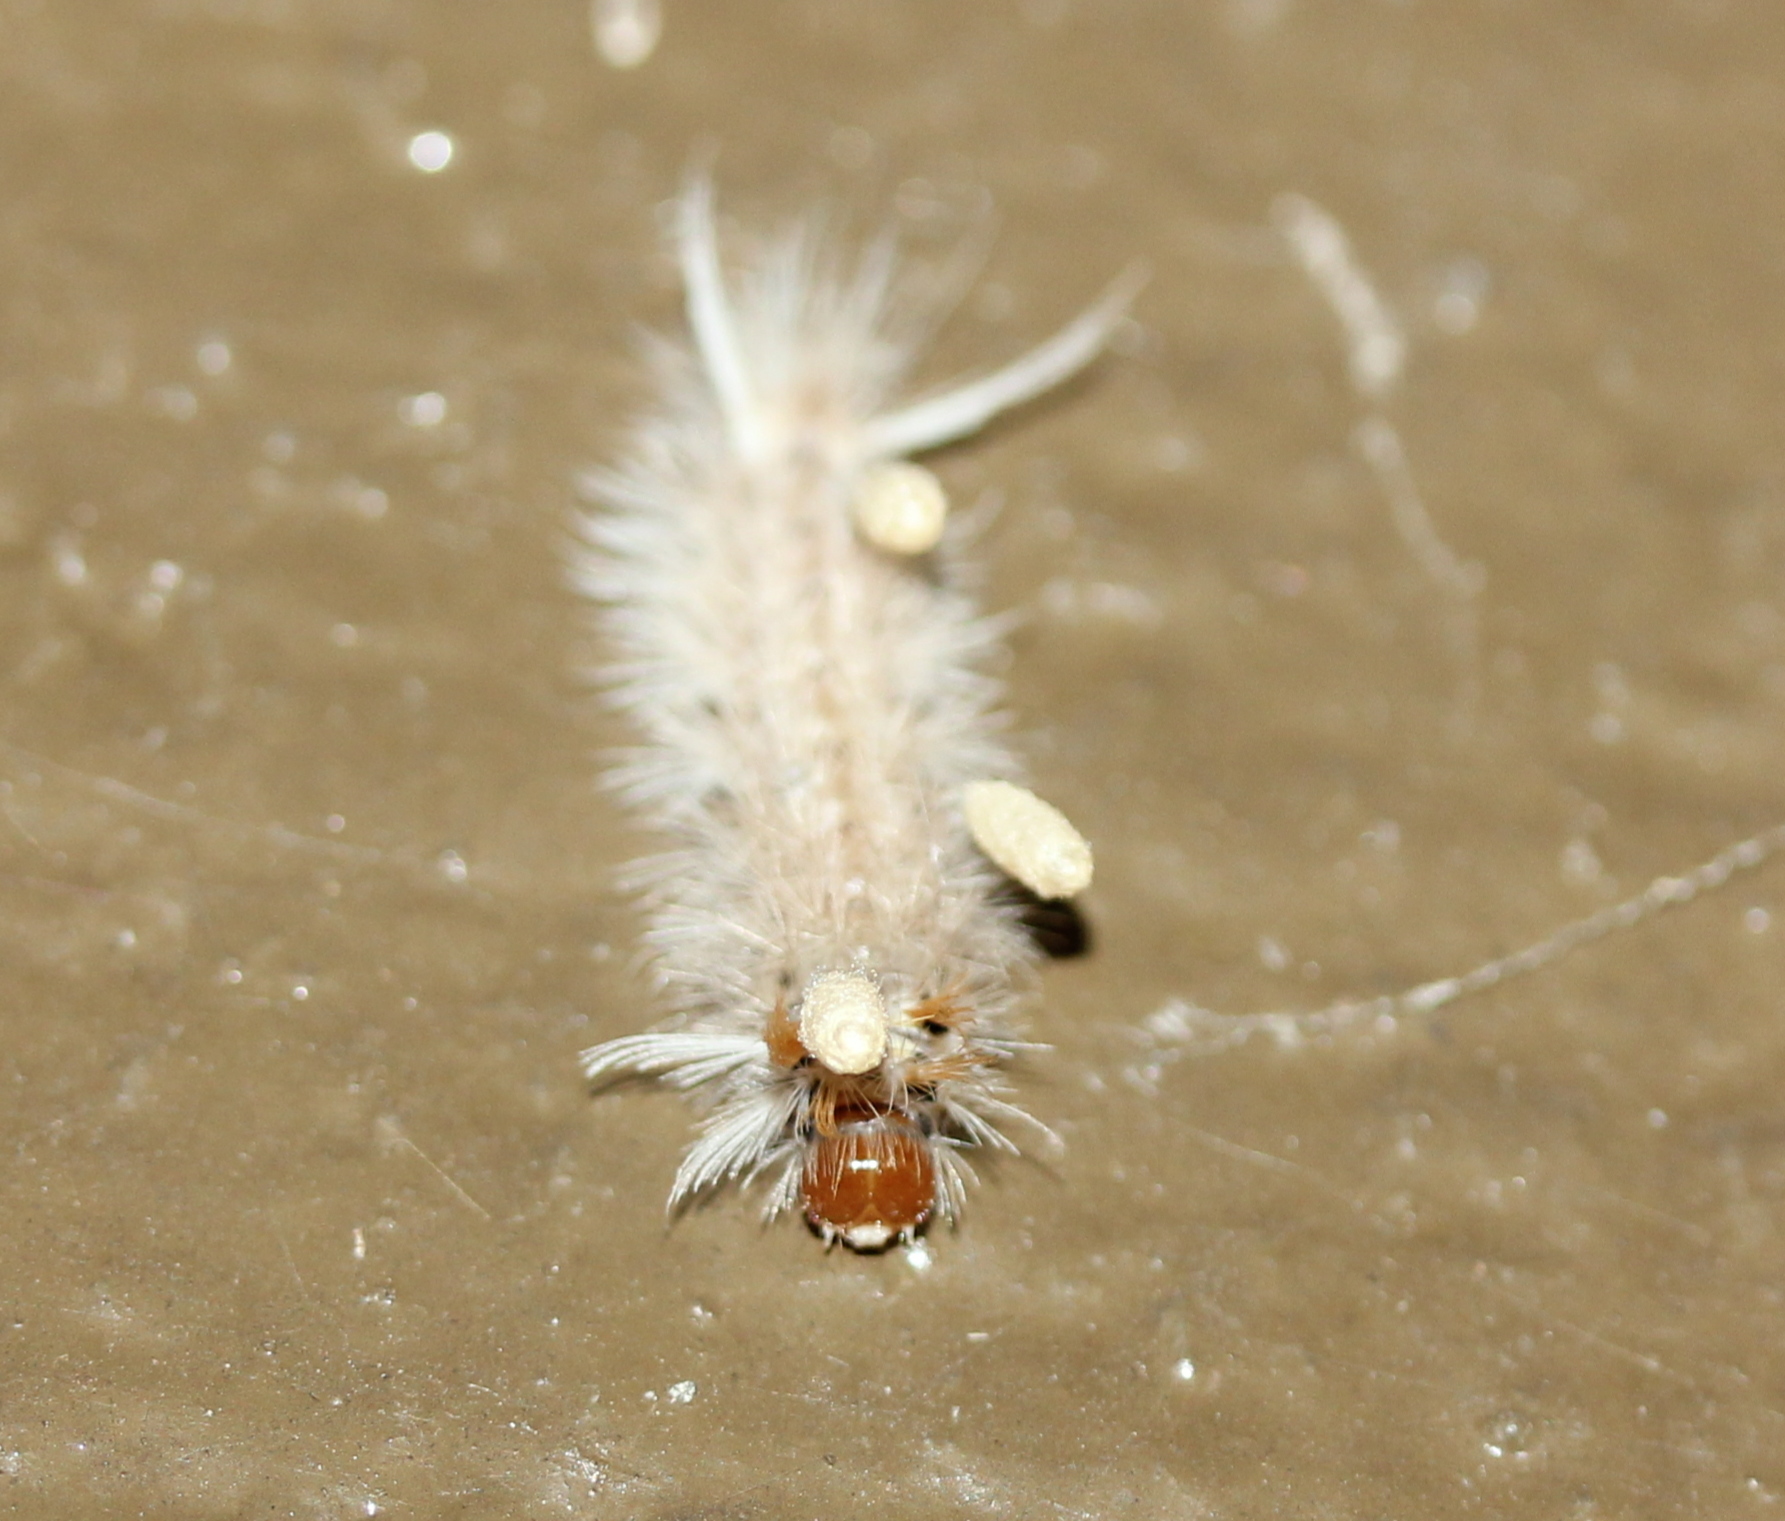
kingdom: Animalia
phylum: Arthropoda
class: Insecta
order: Lepidoptera
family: Erebidae
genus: Halysidota
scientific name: Halysidota harrisii
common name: Sycamore tussock moth
